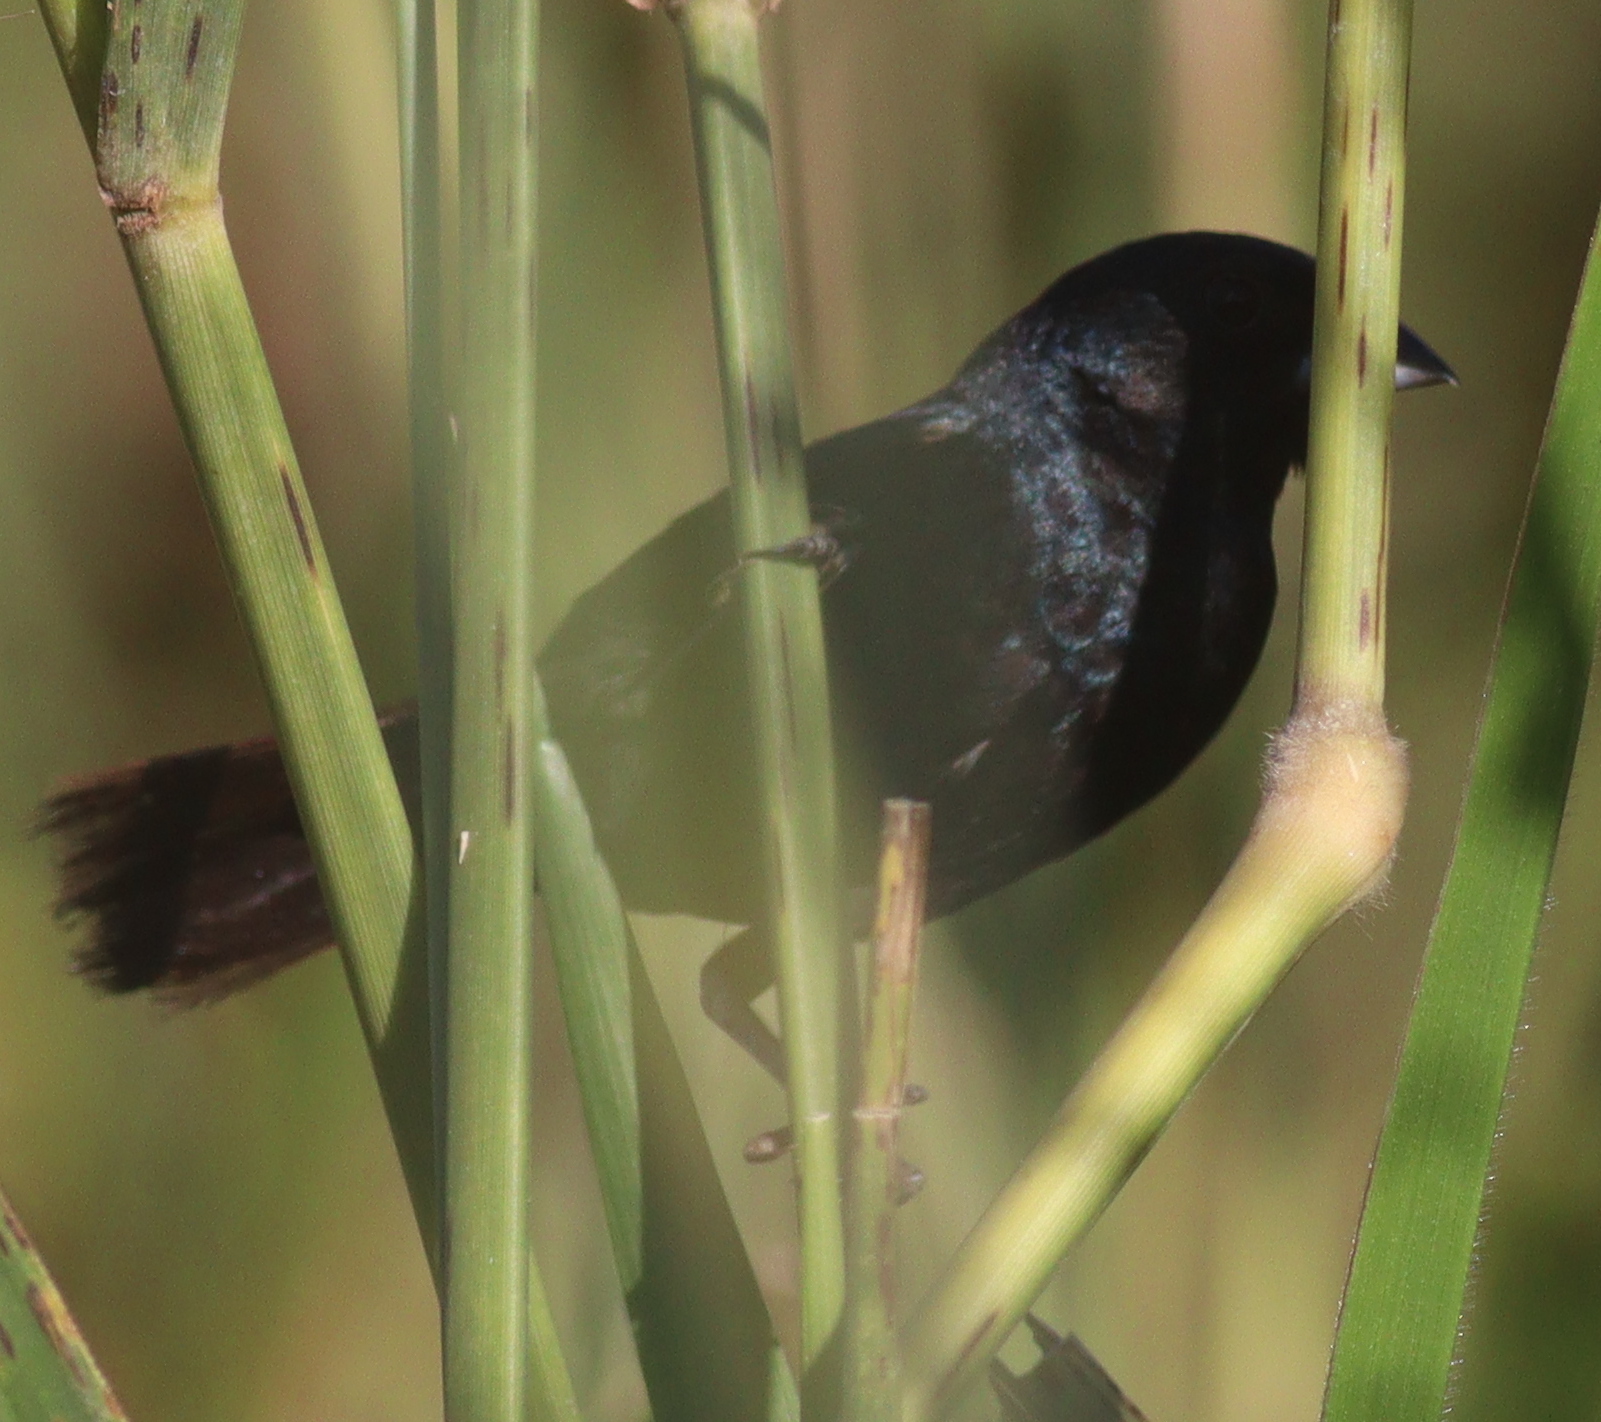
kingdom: Animalia
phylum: Chordata
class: Aves
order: Passeriformes
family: Thraupidae
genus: Volatinia
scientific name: Volatinia jacarina
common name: Blue-black grassquit
